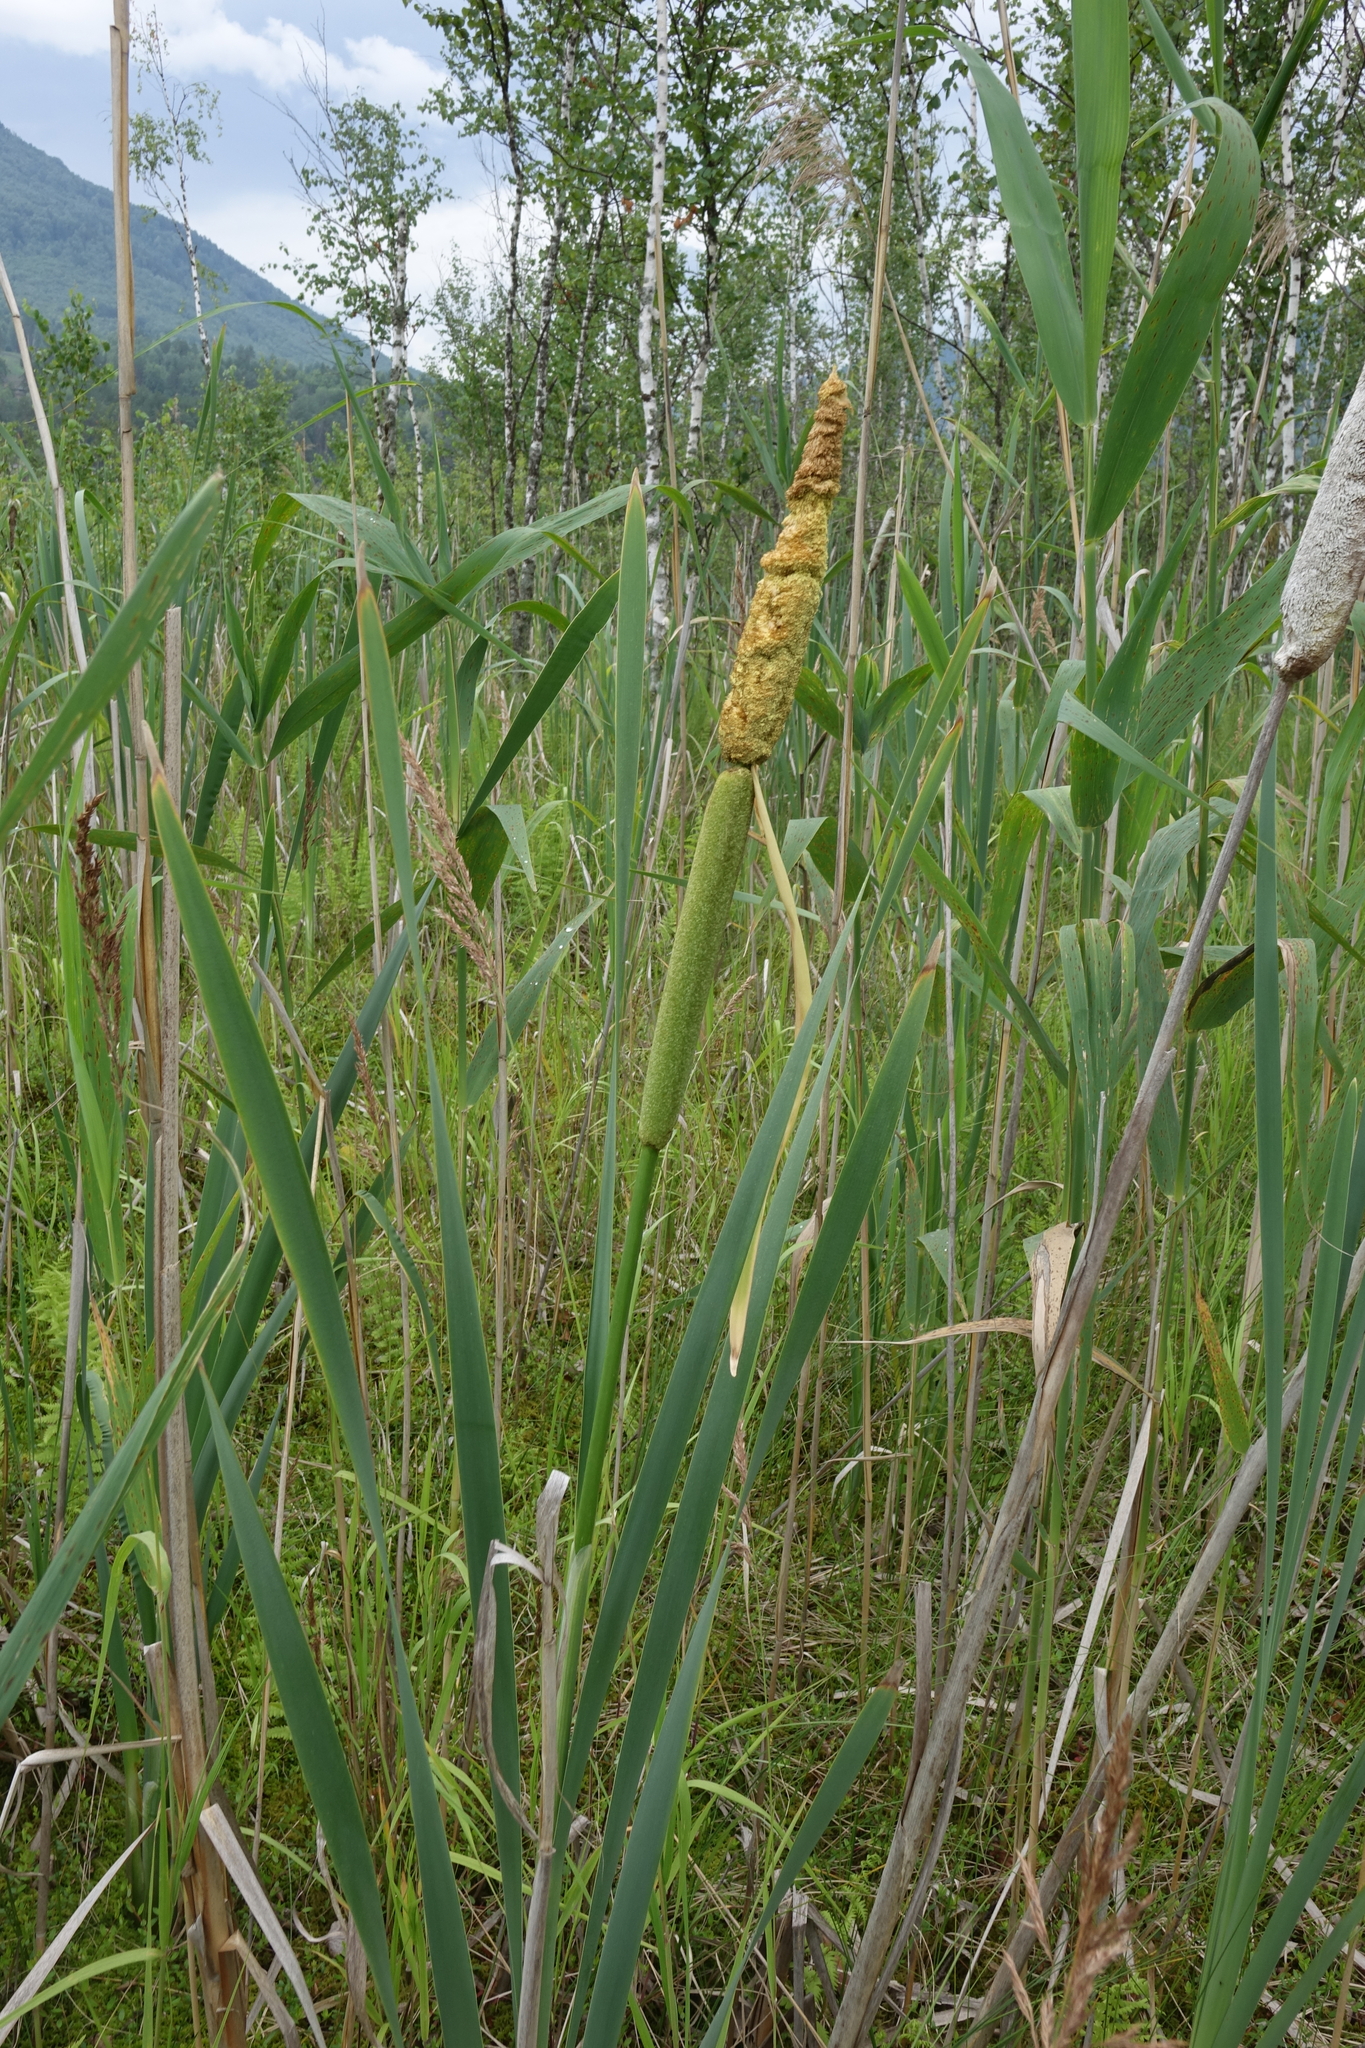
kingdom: Plantae
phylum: Tracheophyta
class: Liliopsida
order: Poales
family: Typhaceae
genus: Typha
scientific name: Typha latifolia
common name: Broadleaf cattail
